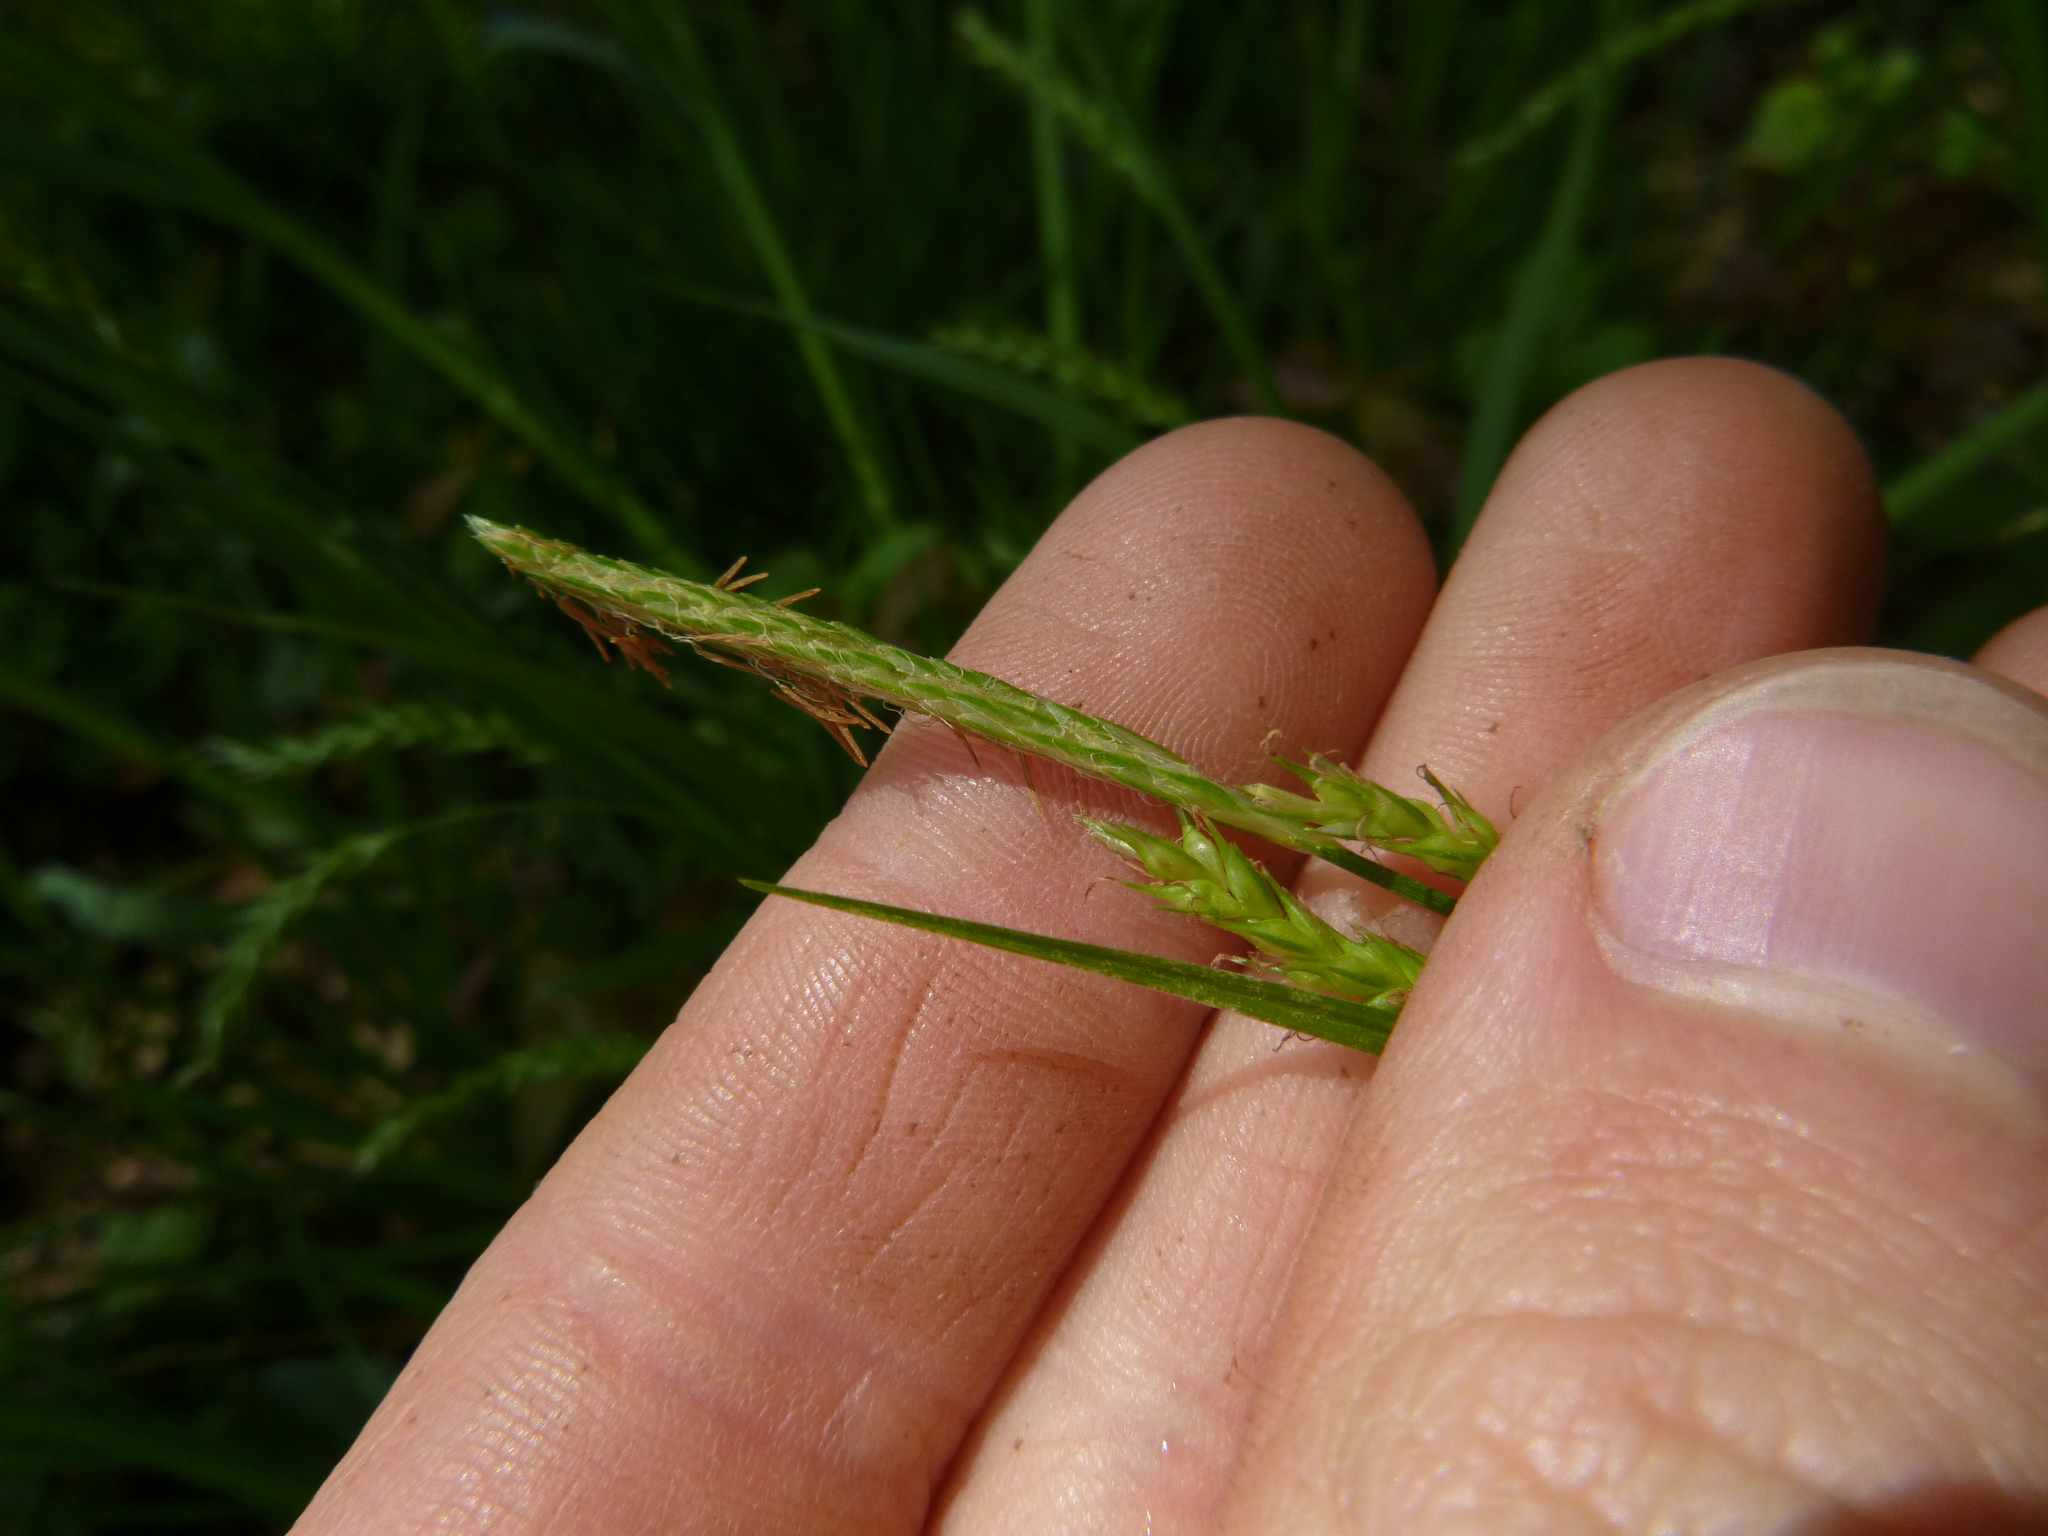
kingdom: Plantae
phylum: Tracheophyta
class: Liliopsida
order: Poales
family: Cyperaceae
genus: Carex
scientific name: Carex sylvatica
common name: Wood-sedge
